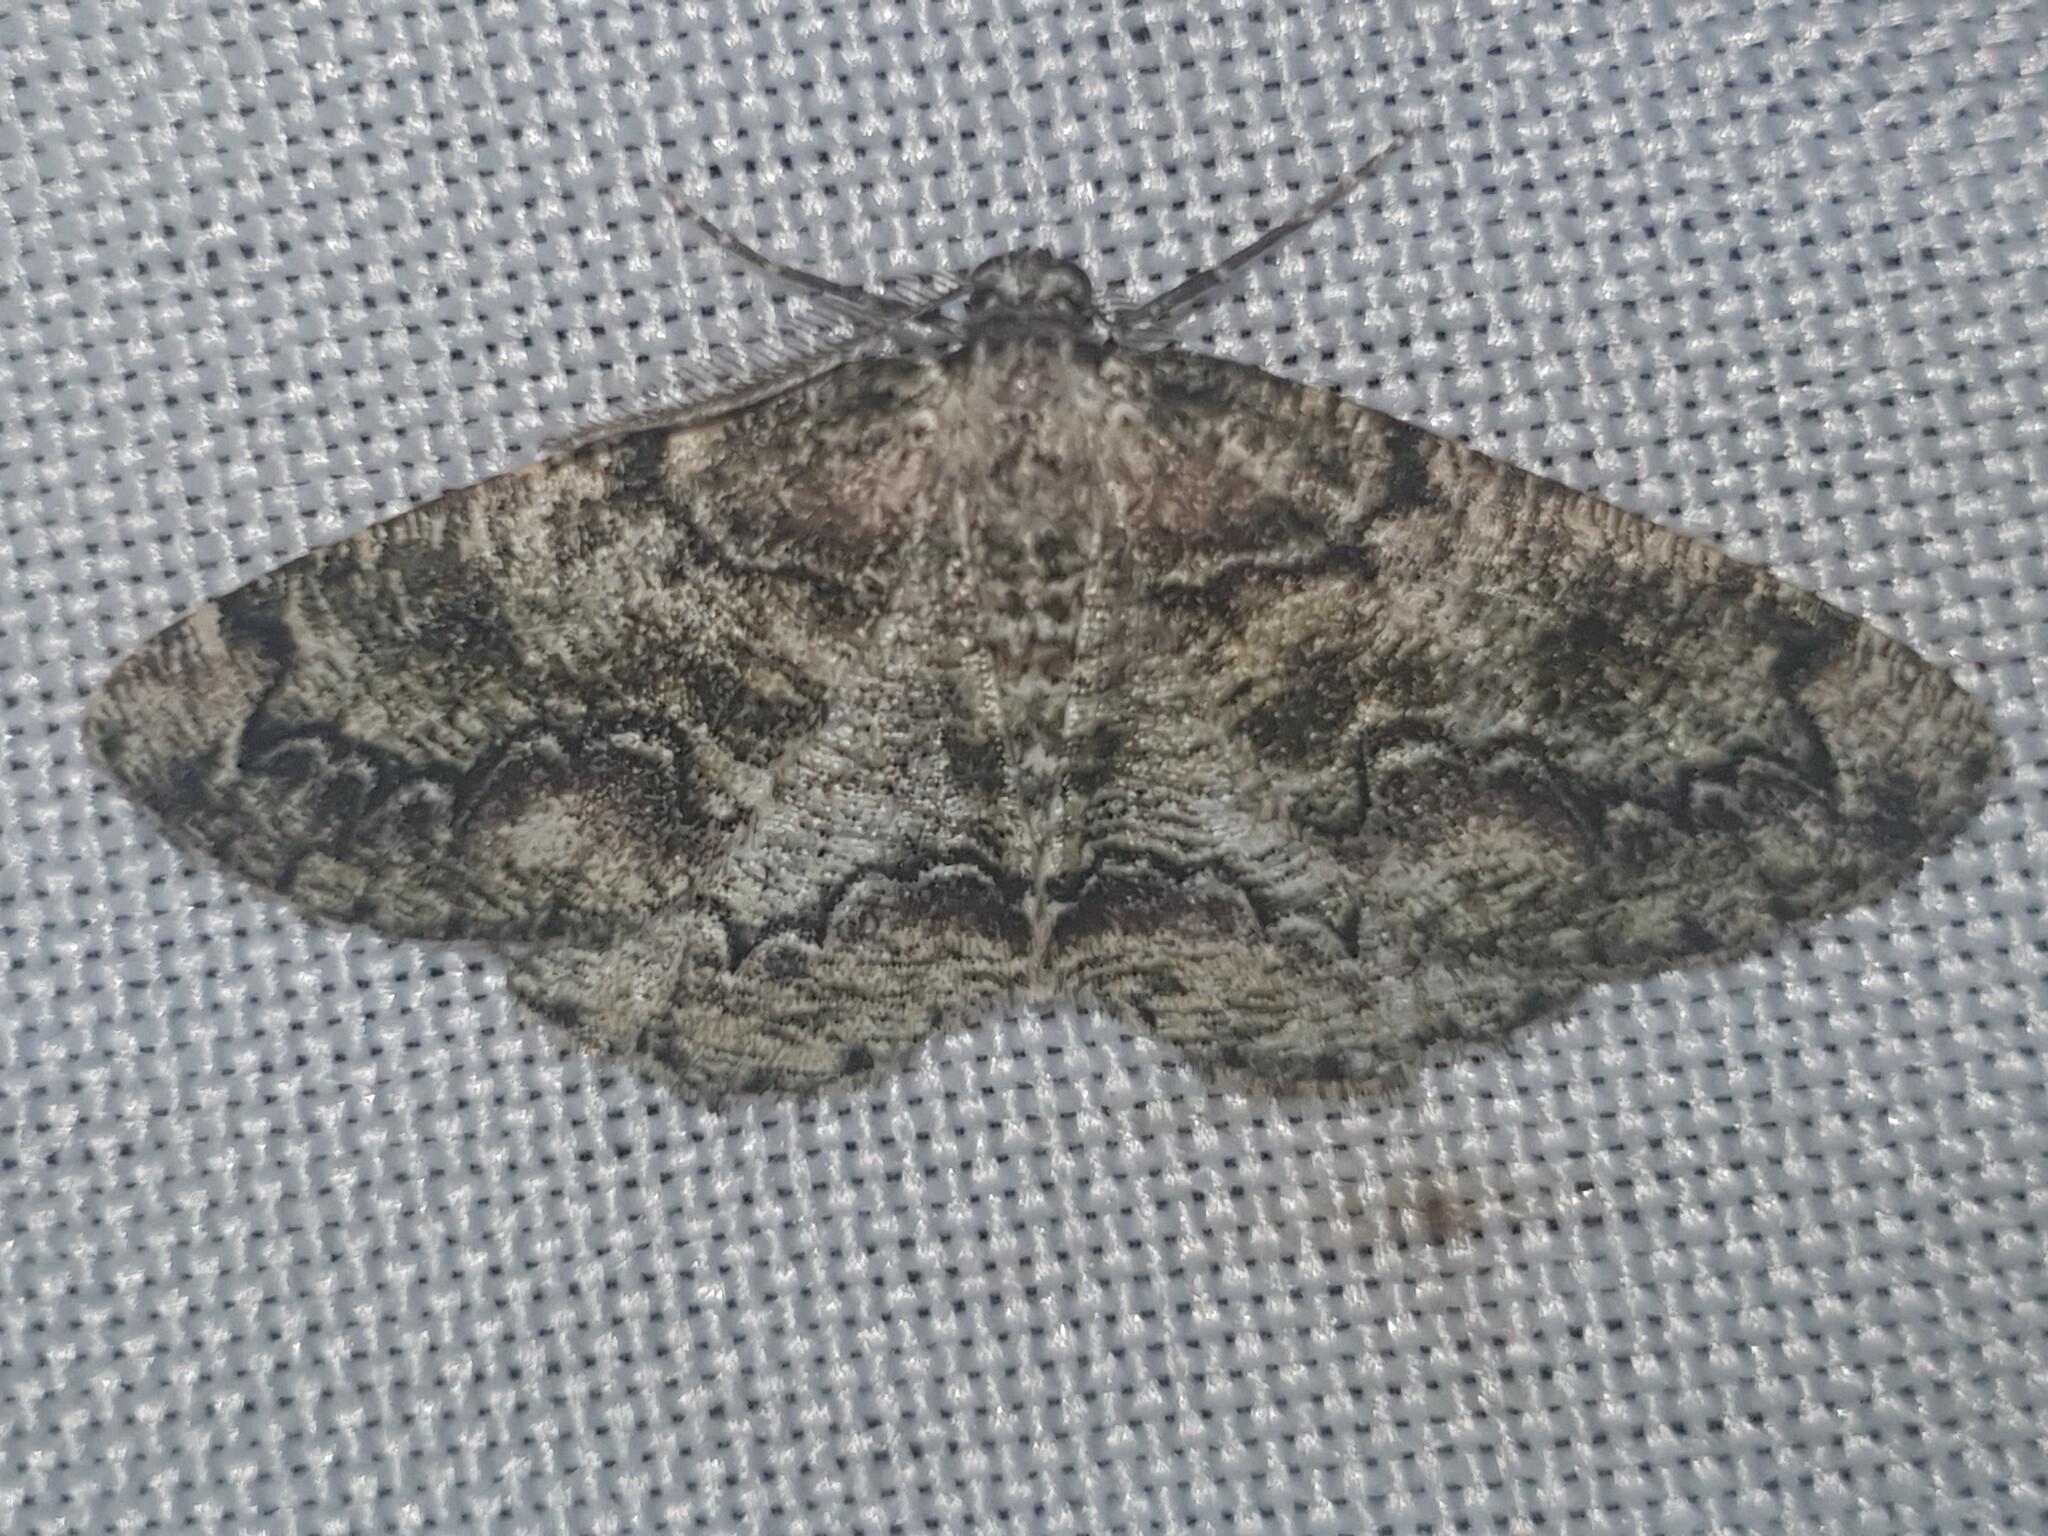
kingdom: Animalia
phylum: Arthropoda
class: Insecta
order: Lepidoptera
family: Geometridae
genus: Cleorodes
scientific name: Cleorodes lichenaria
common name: Brussels lace
